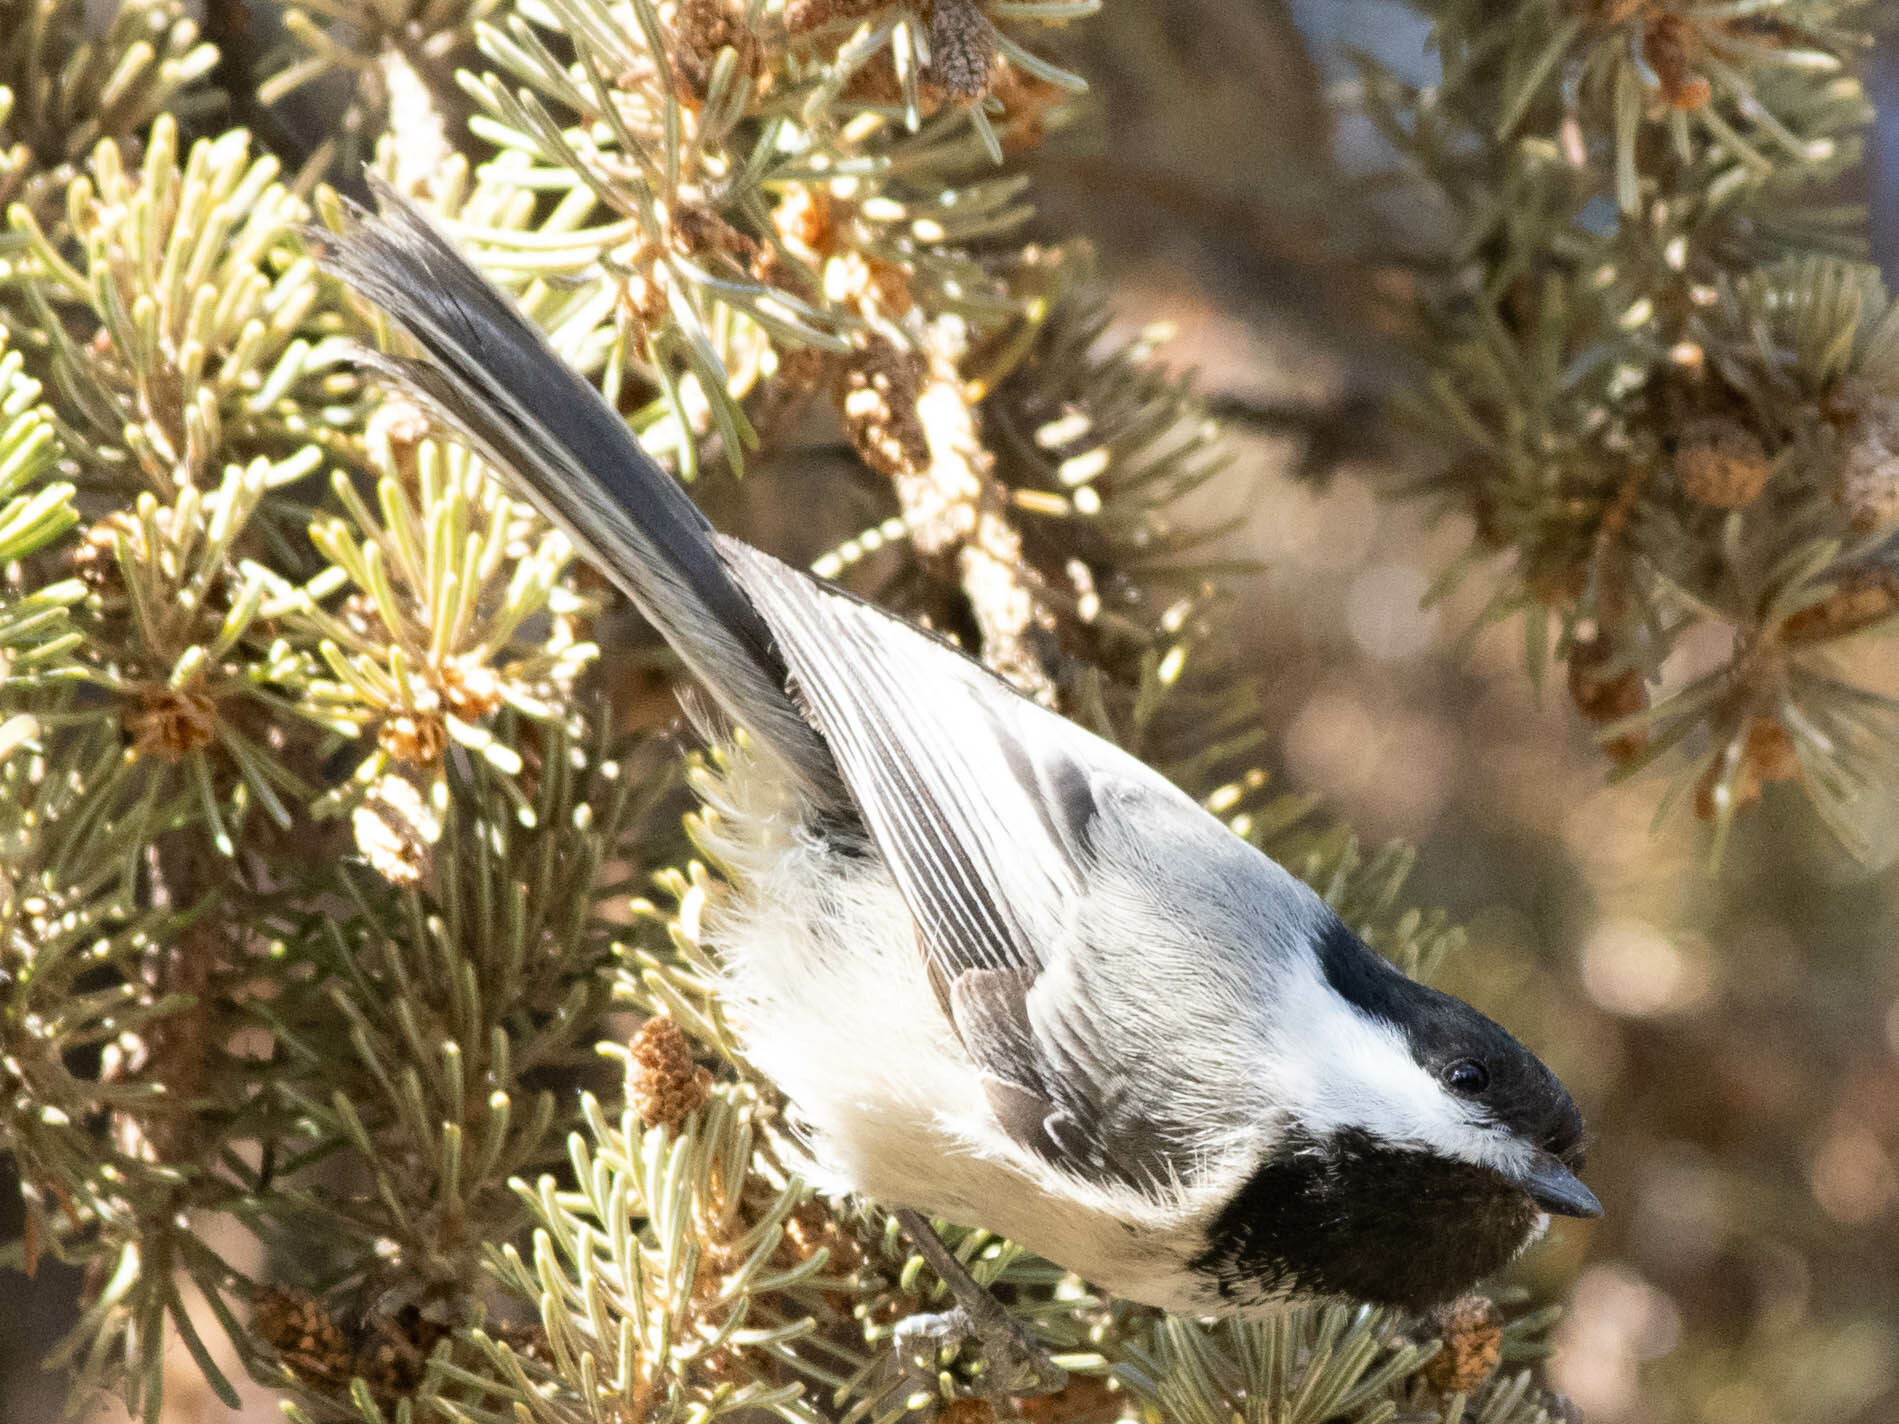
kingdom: Animalia
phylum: Chordata
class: Aves
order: Passeriformes
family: Paridae
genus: Poecile
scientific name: Poecile atricapillus
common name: Black-capped chickadee
